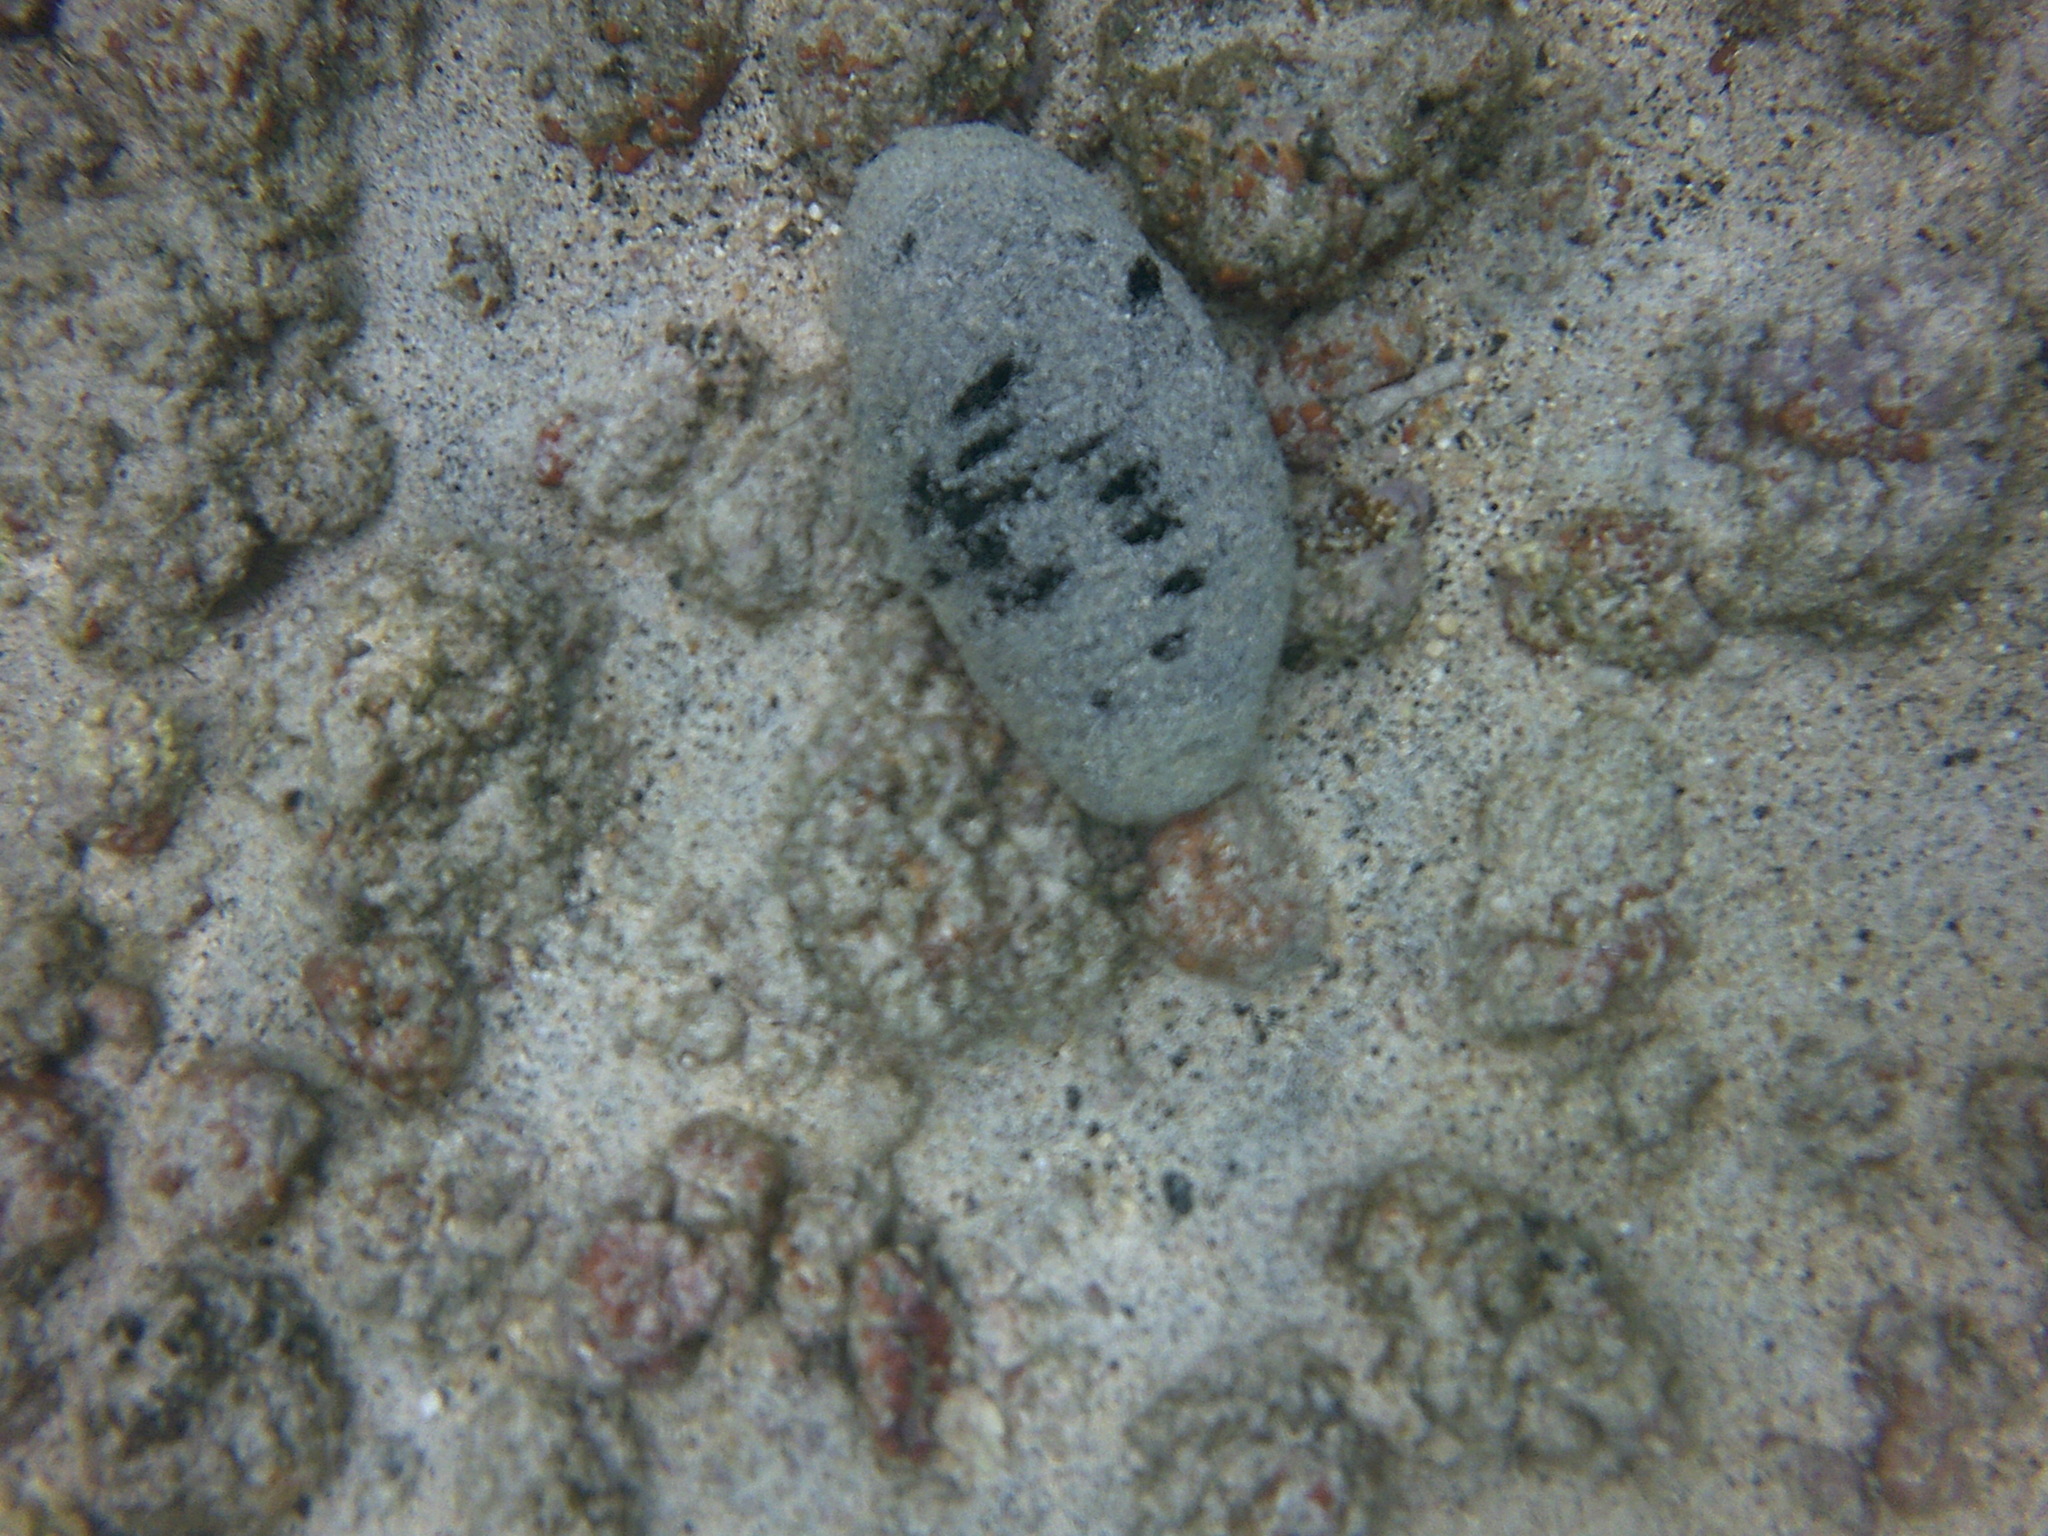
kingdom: Animalia
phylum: Echinodermata
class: Holothuroidea
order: Holothuriida
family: Holothuriidae
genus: Holothuria
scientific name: Holothuria atra
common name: Lollyfish
